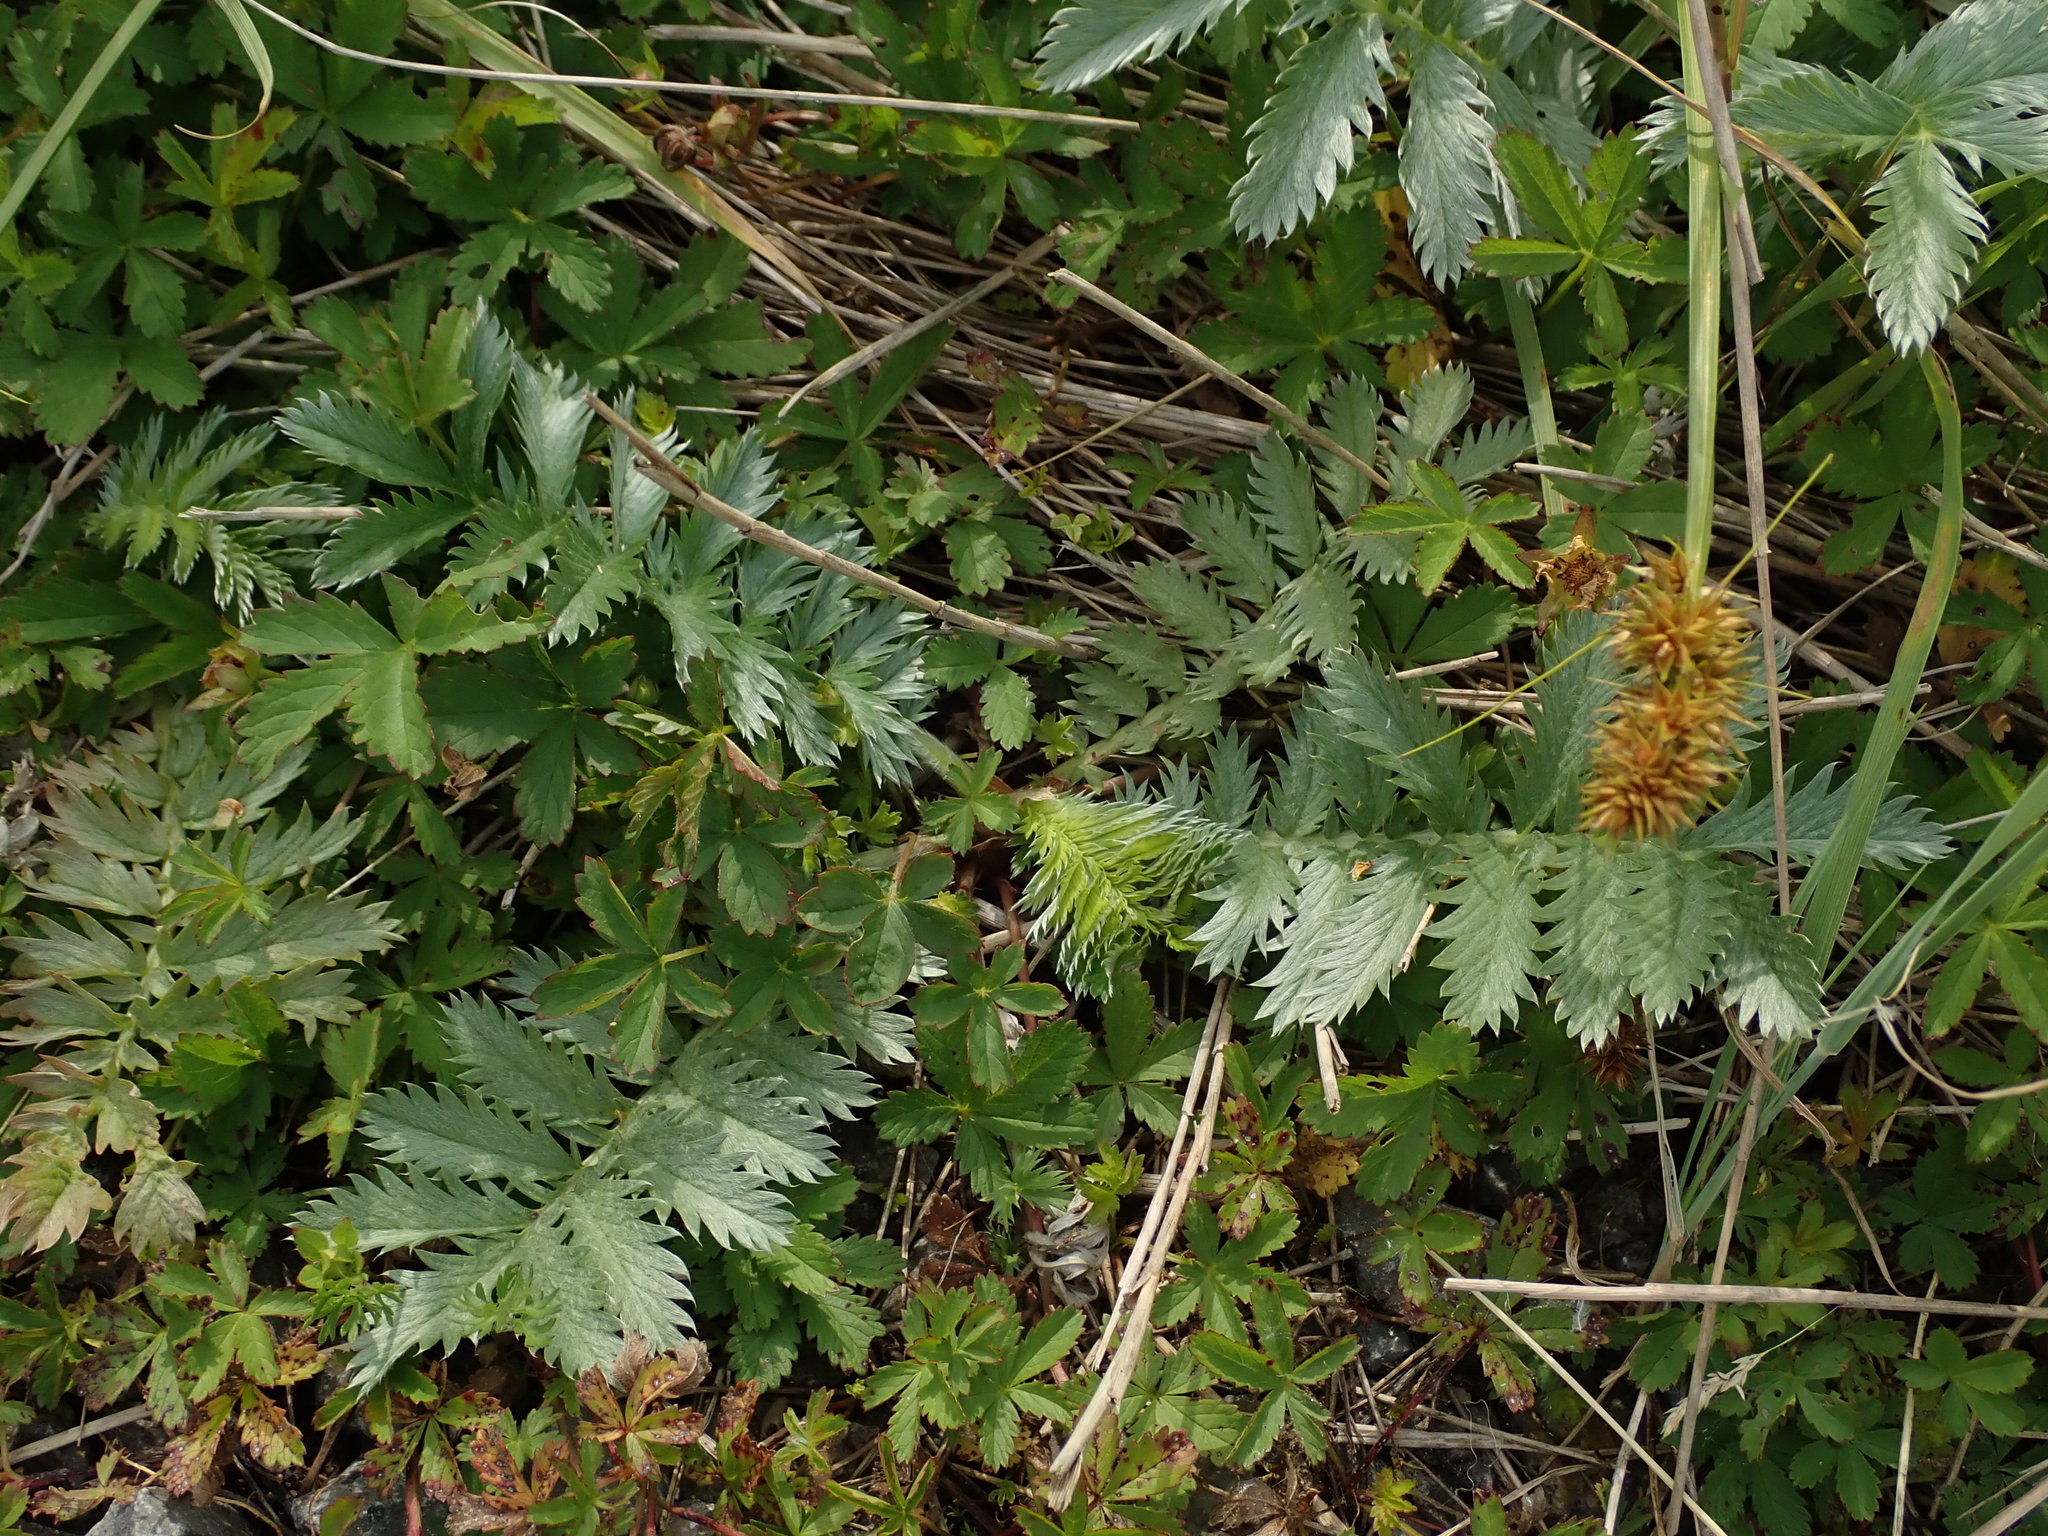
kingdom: Plantae
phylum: Tracheophyta
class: Magnoliopsida
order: Rosales
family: Rosaceae
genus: Argentina
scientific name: Argentina anserina
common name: Common silverweed
